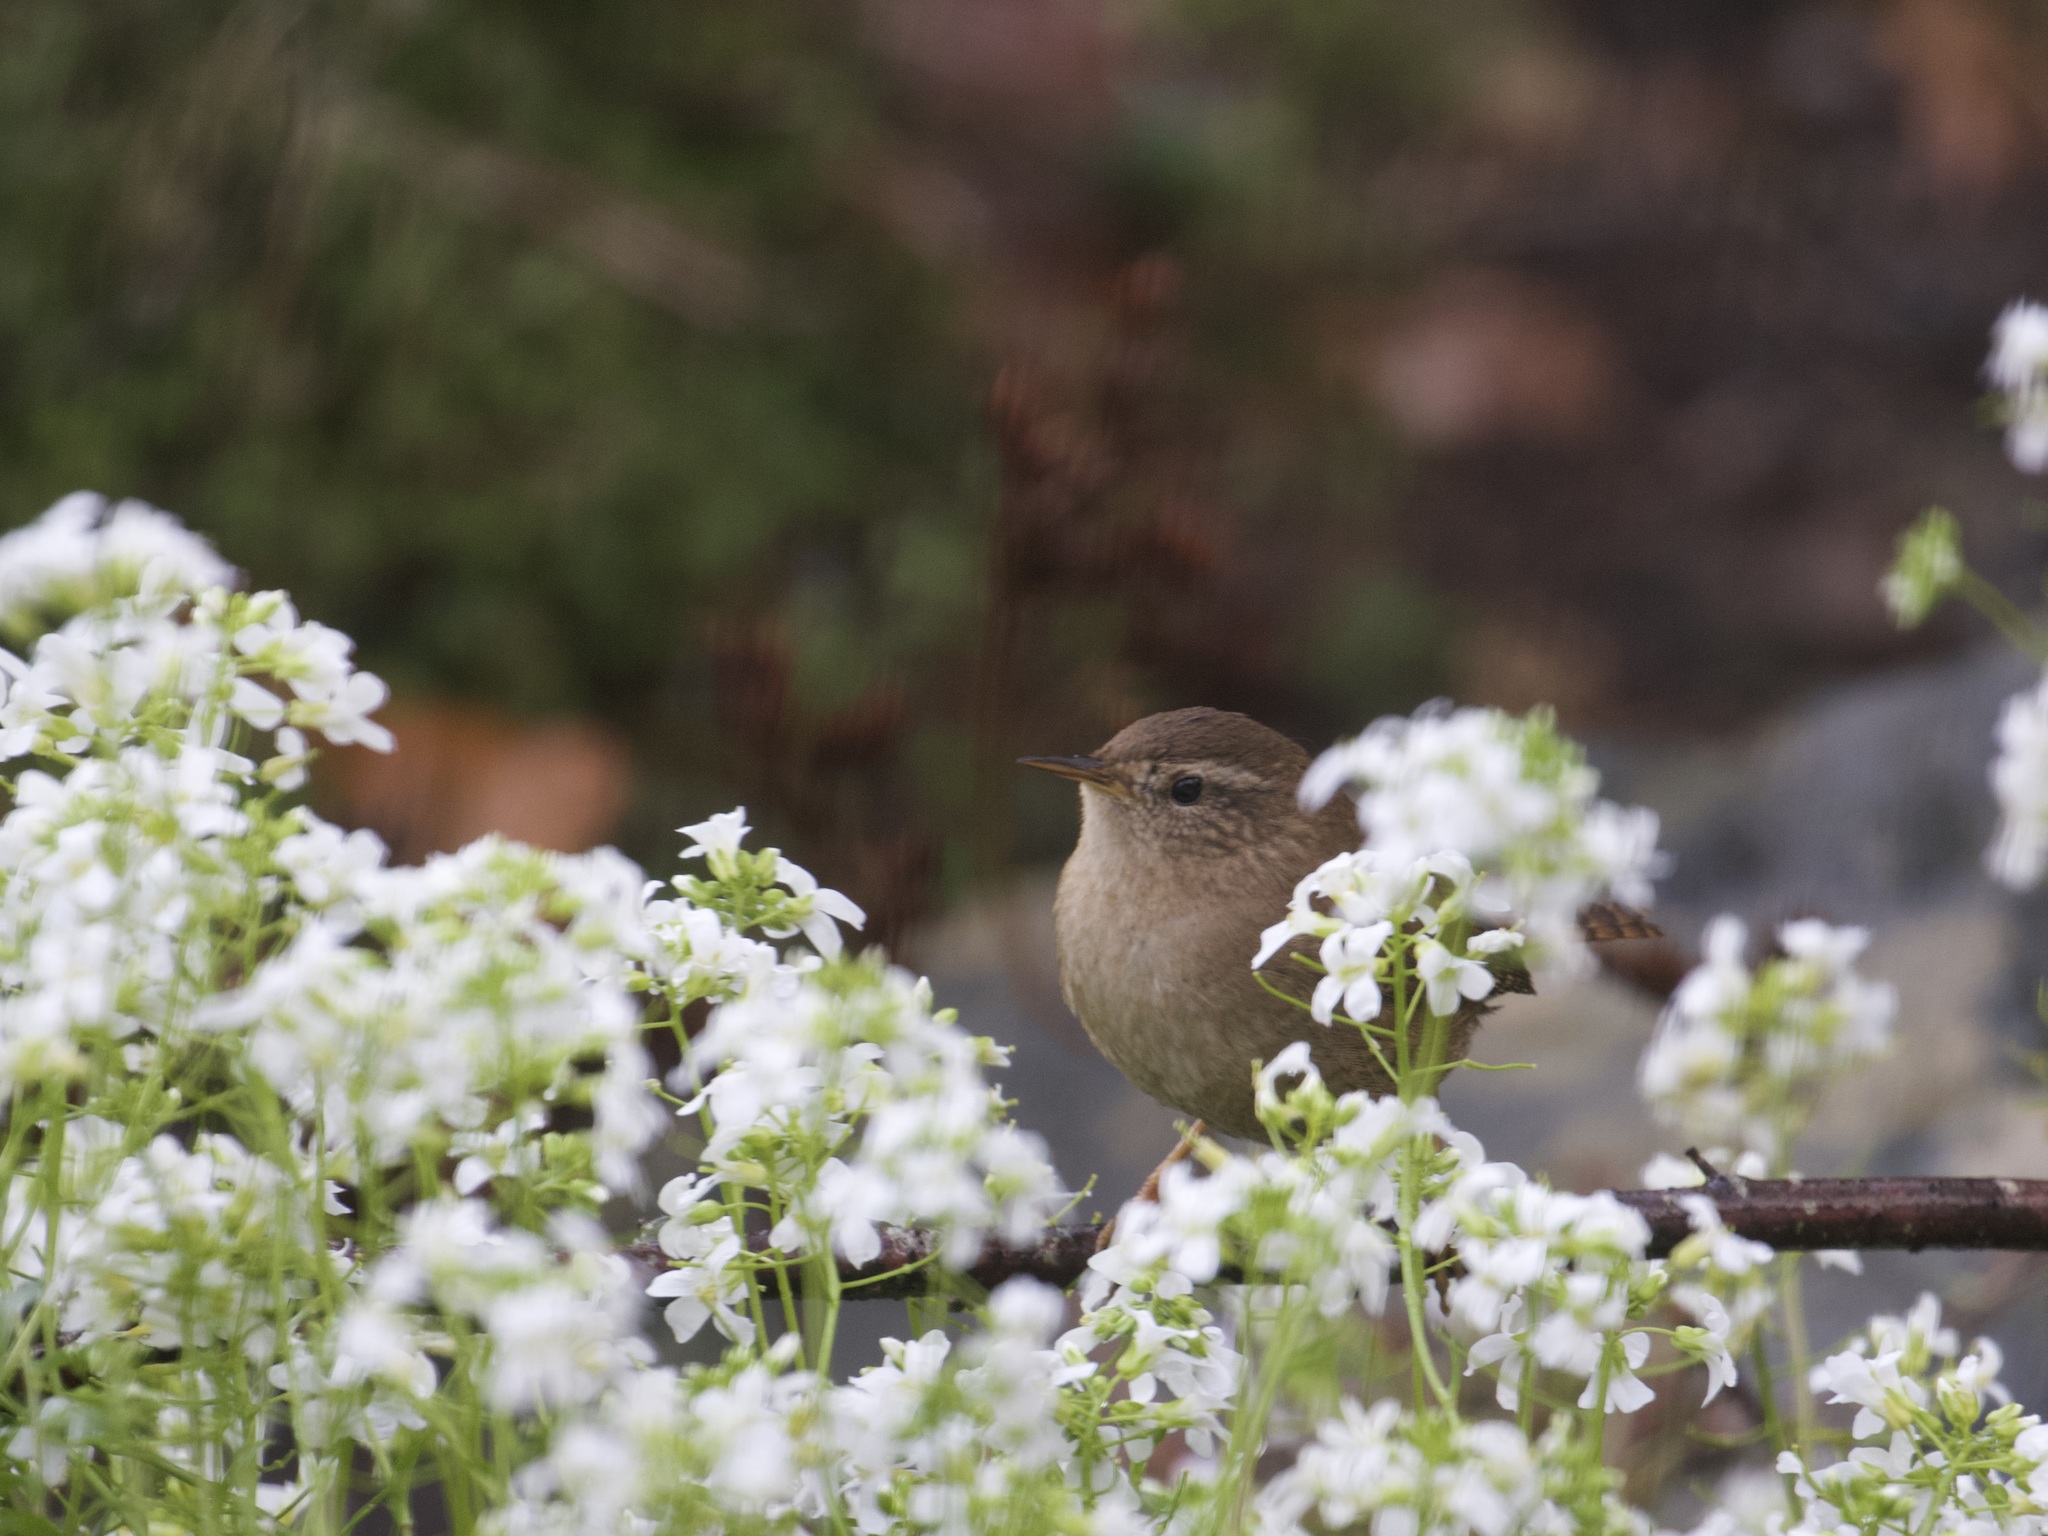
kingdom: Animalia
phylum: Chordata
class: Aves
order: Passeriformes
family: Troglodytidae
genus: Troglodytes
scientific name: Troglodytes troglodytes
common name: Eurasian wren
